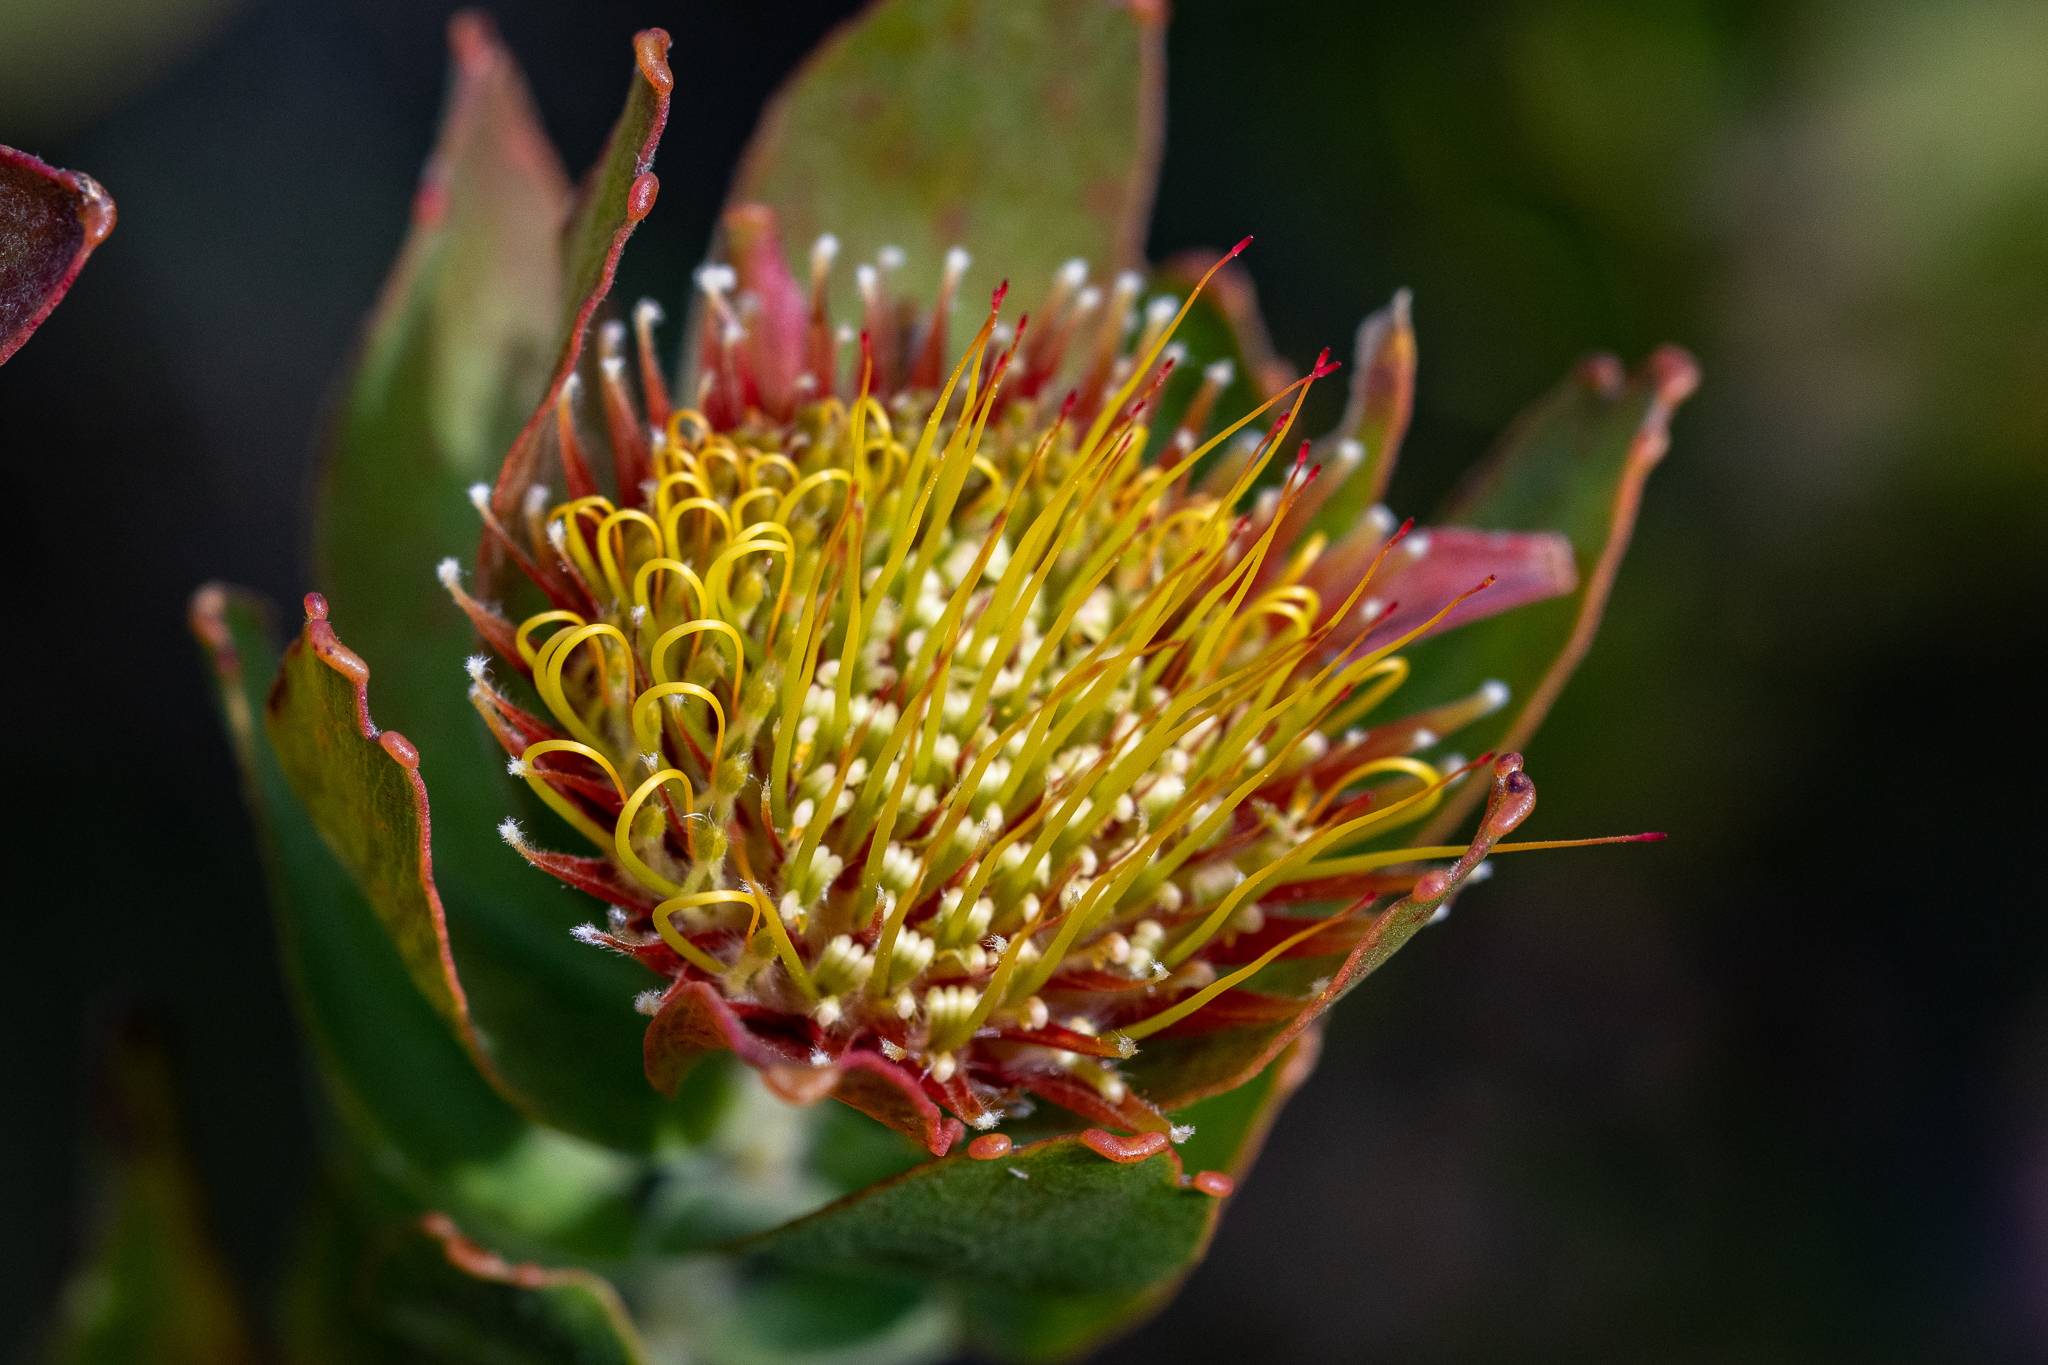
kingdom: Plantae
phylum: Tracheophyta
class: Magnoliopsida
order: Proteales
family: Proteaceae
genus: Leucospermum
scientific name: Leucospermum oleifolium
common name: Matches
